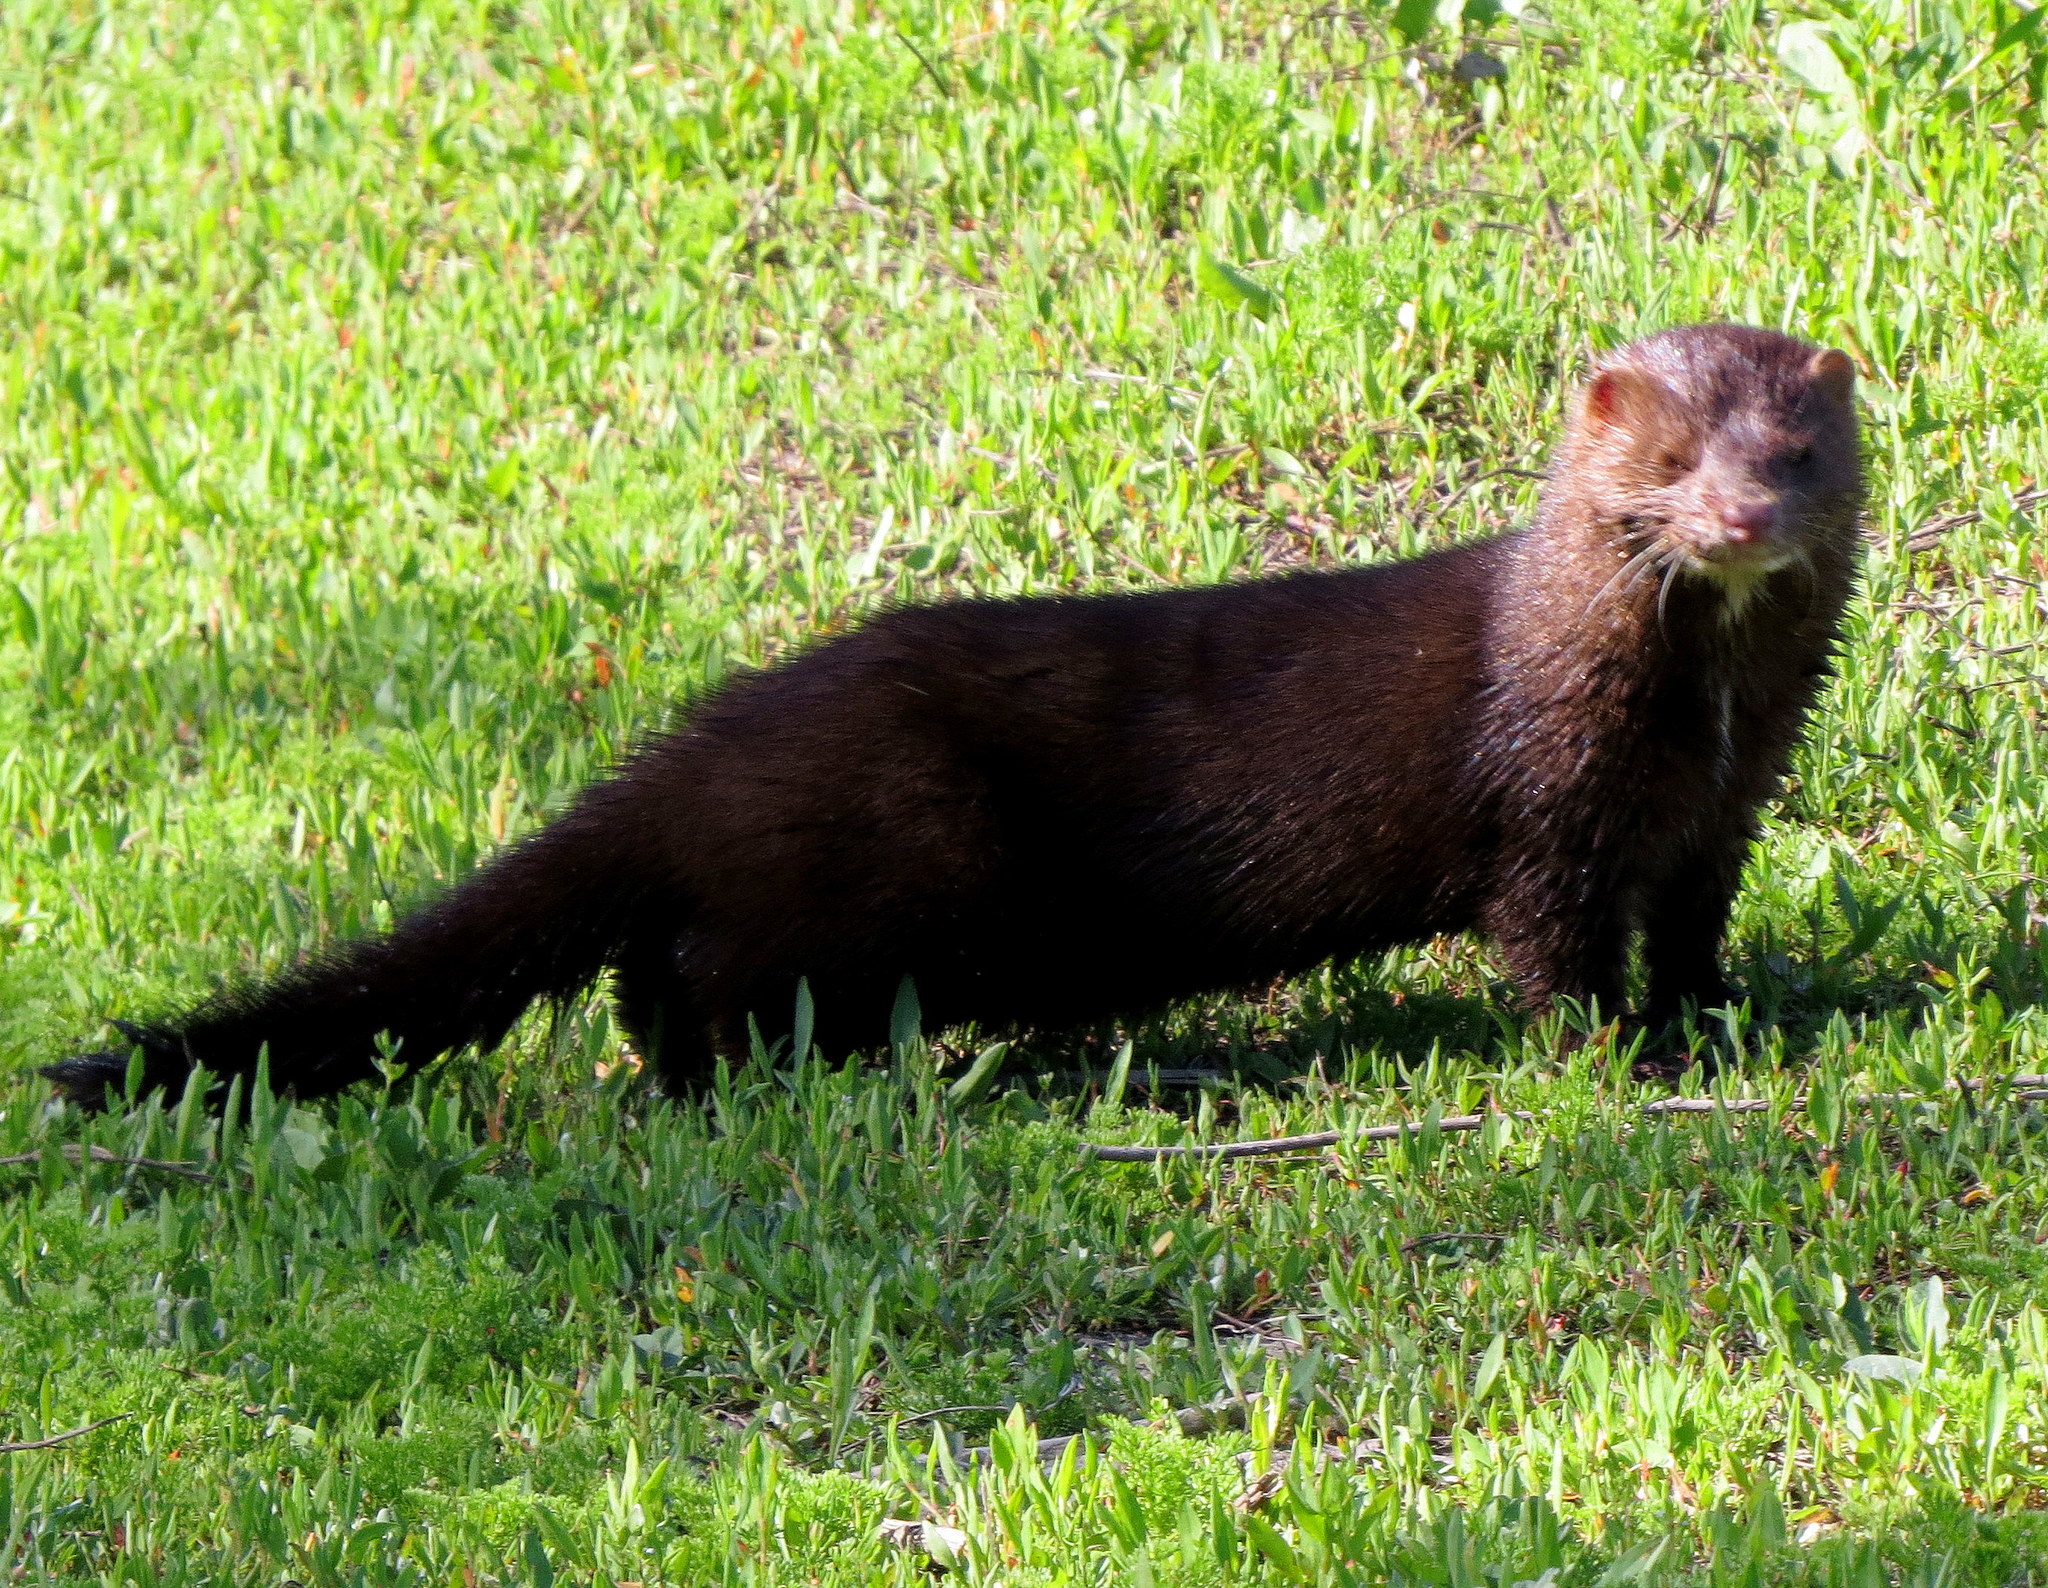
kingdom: Animalia
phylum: Chordata
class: Mammalia
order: Carnivora
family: Mustelidae
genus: Mustela
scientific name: Mustela
